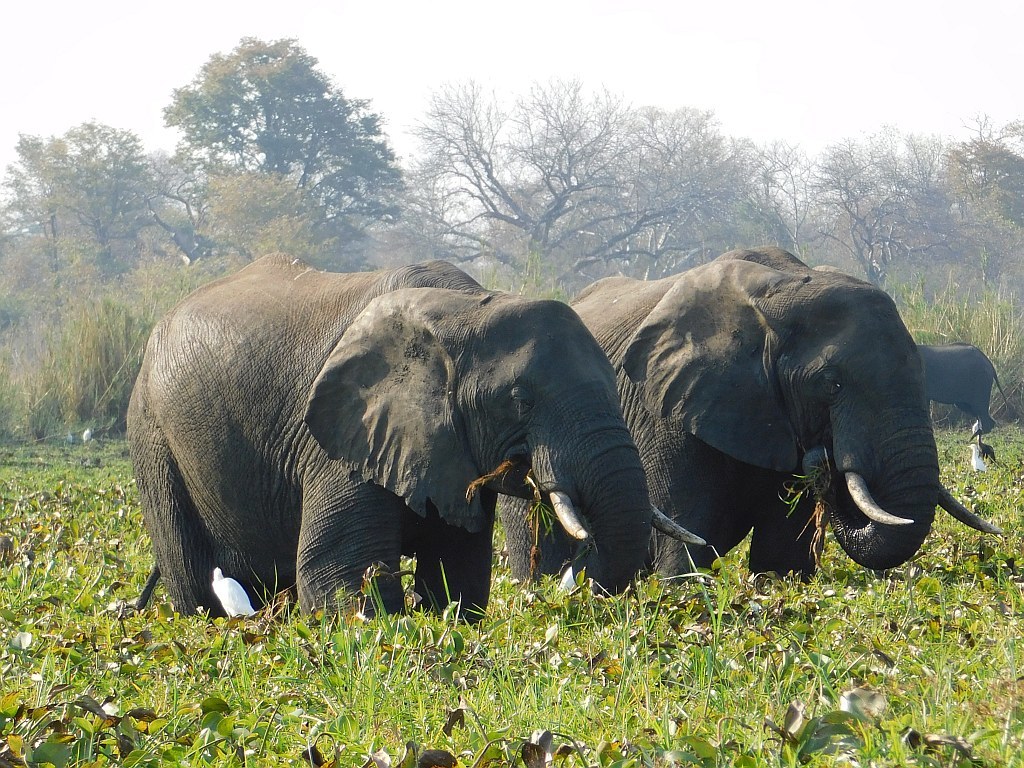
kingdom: Animalia
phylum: Chordata
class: Mammalia
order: Proboscidea
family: Elephantidae
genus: Loxodonta
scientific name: Loxodonta africana
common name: African elephant
